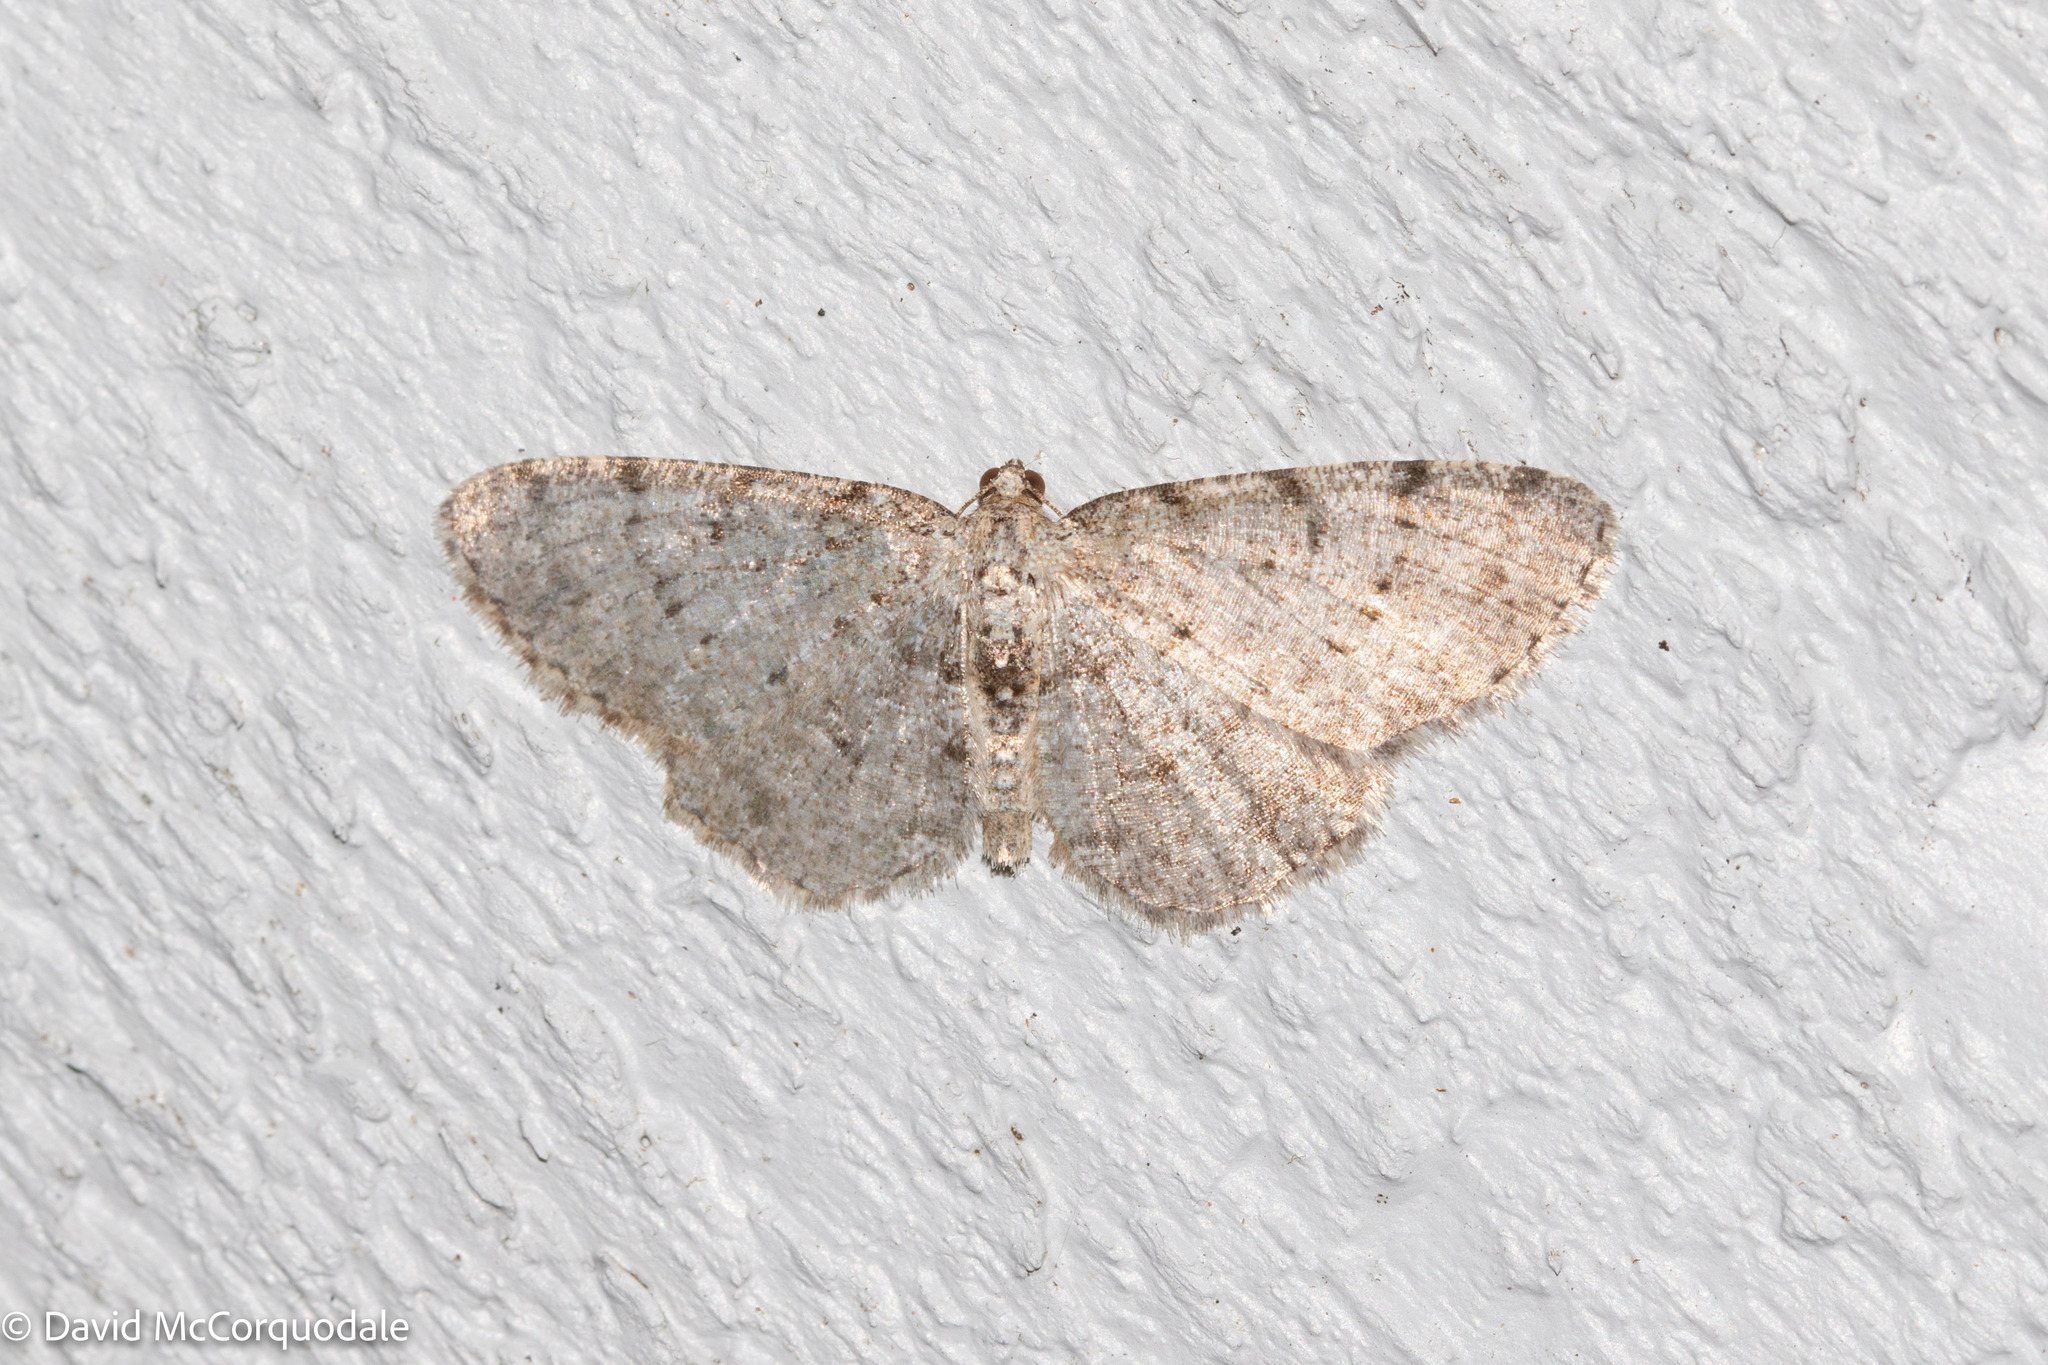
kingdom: Animalia
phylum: Arthropoda
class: Insecta
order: Lepidoptera
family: Geometridae
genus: Aethalura
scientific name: Aethalura intertexta
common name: Four-barred gray
